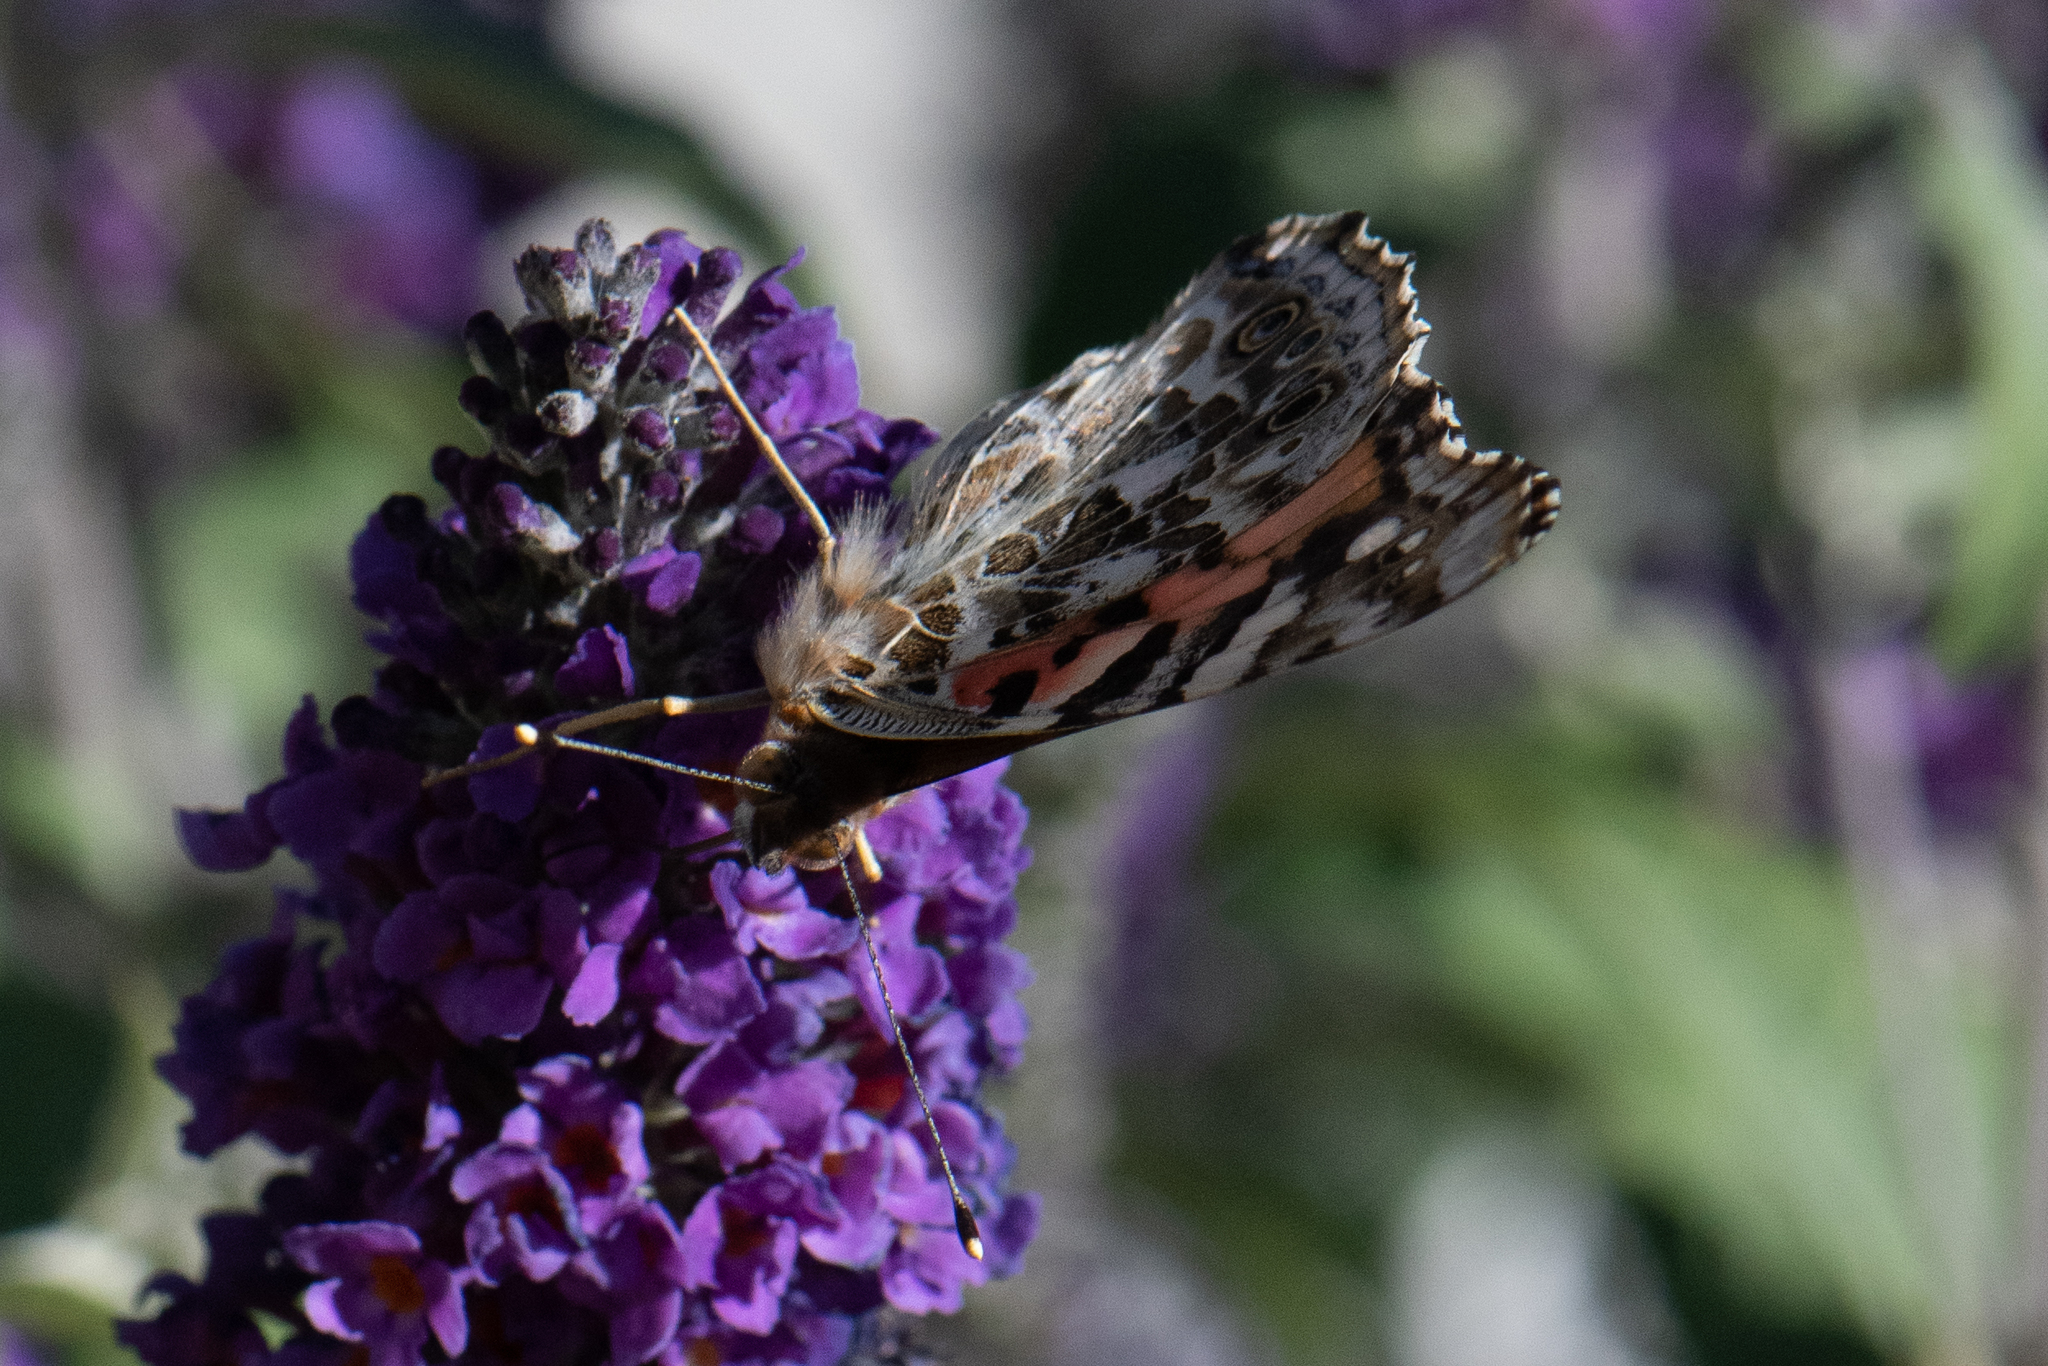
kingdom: Animalia
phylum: Arthropoda
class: Insecta
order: Lepidoptera
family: Nymphalidae
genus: Vanessa
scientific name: Vanessa cardui
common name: Painted lady
